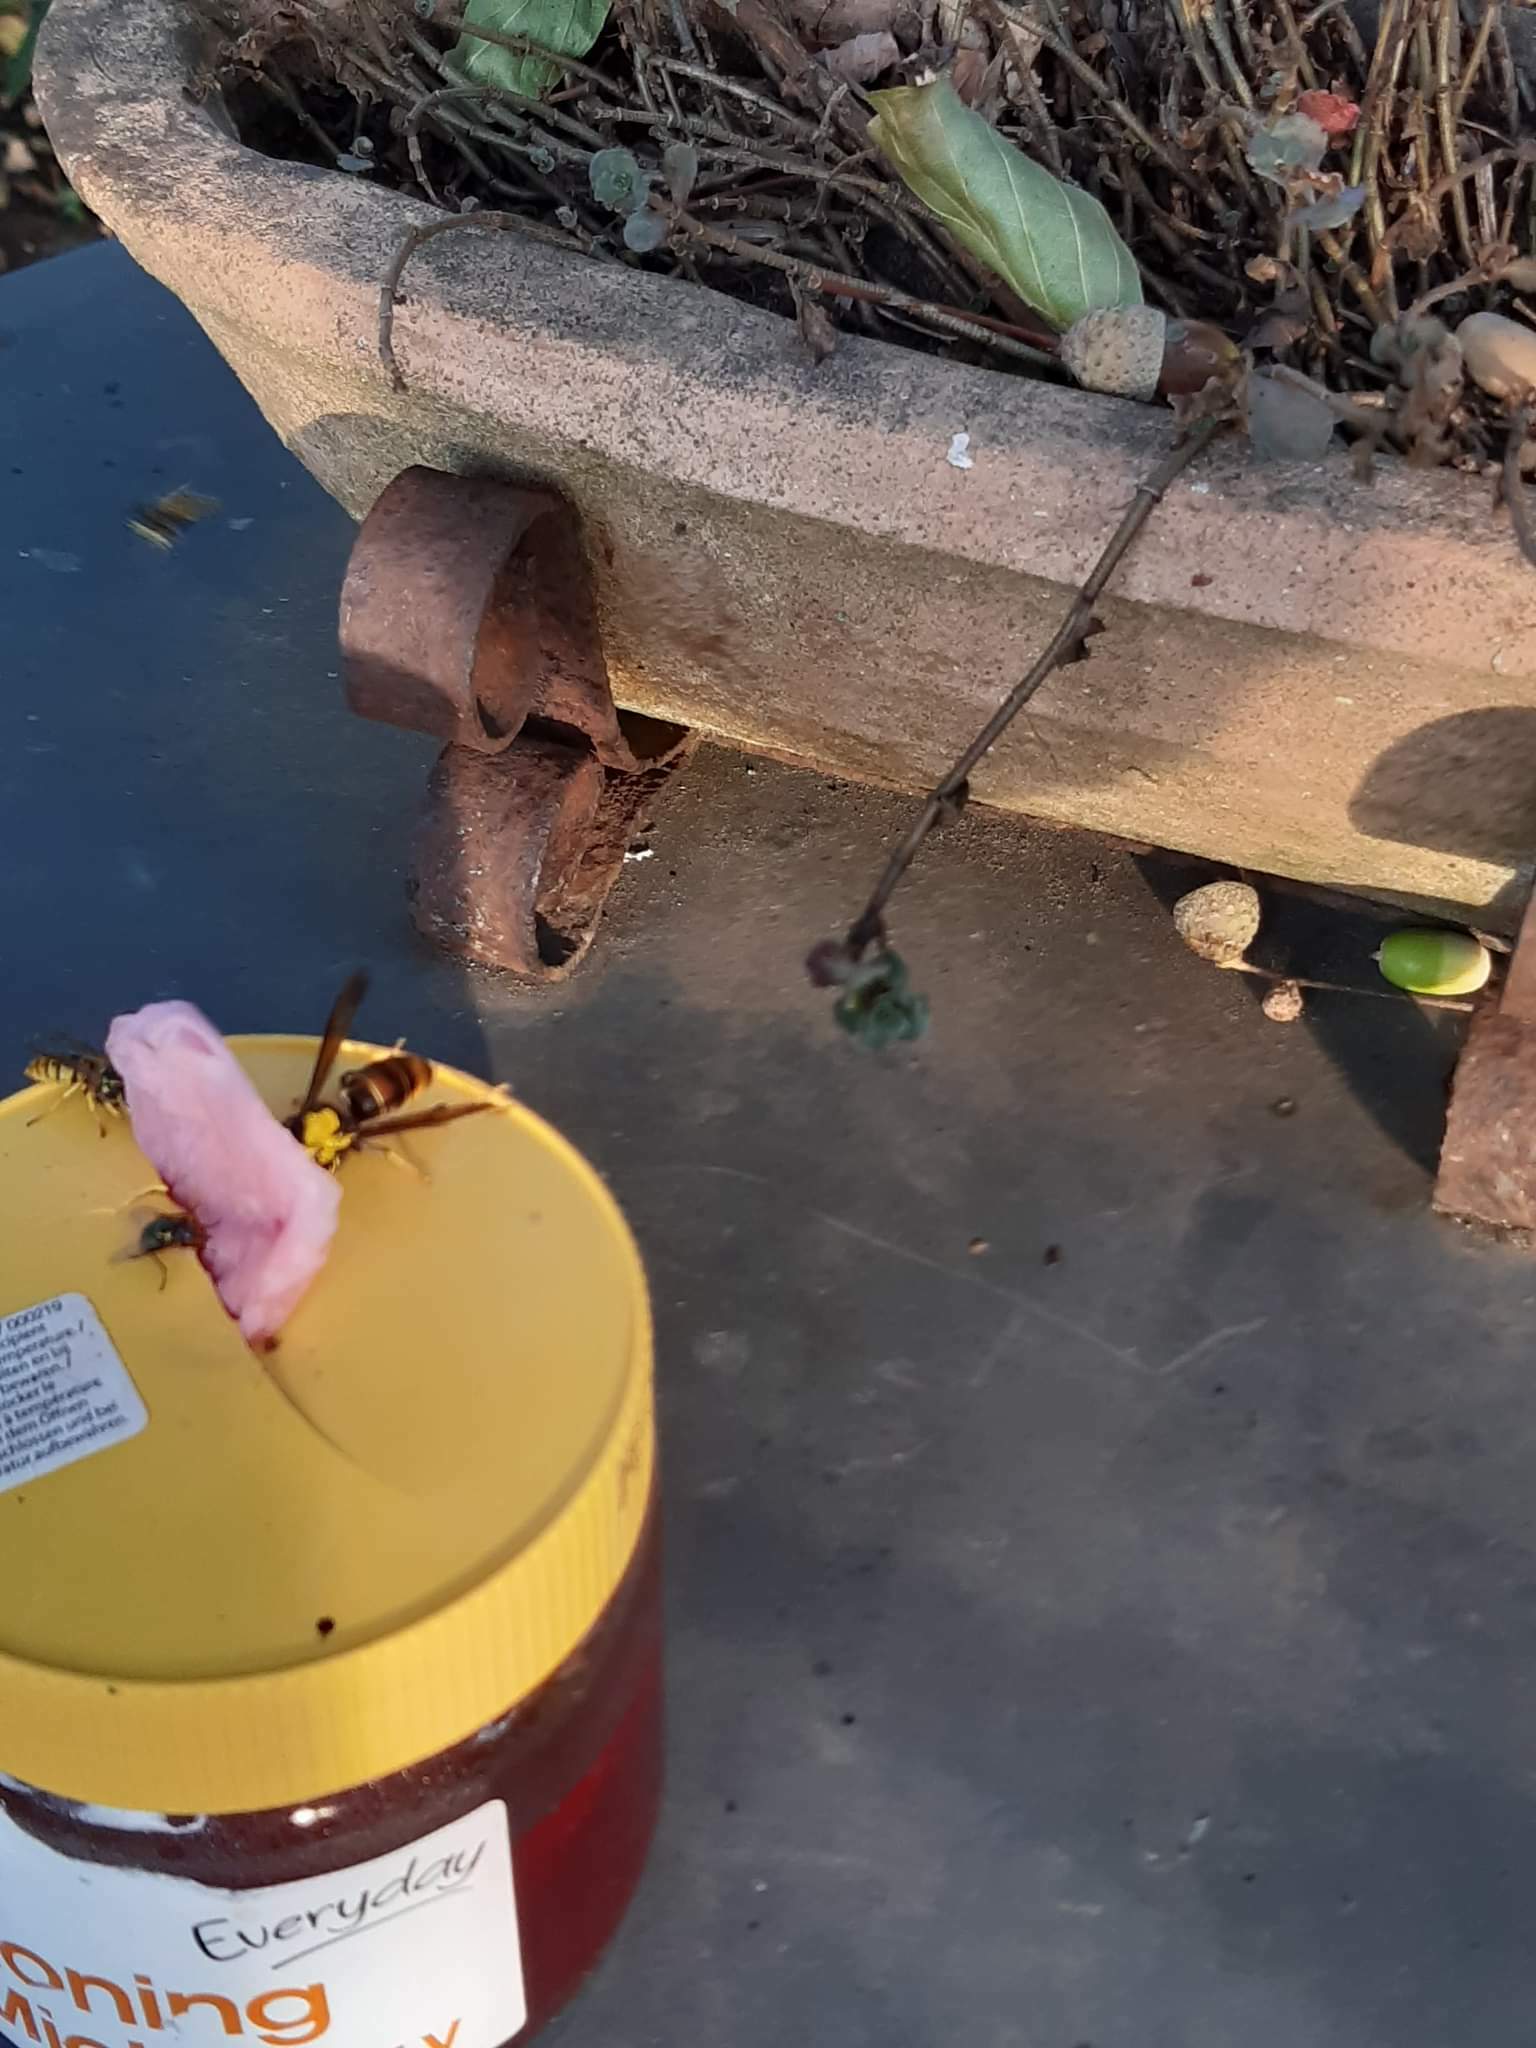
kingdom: Animalia
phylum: Arthropoda
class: Insecta
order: Hymenoptera
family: Vespidae
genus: Vespa
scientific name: Vespa velutina
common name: Asian hornet
